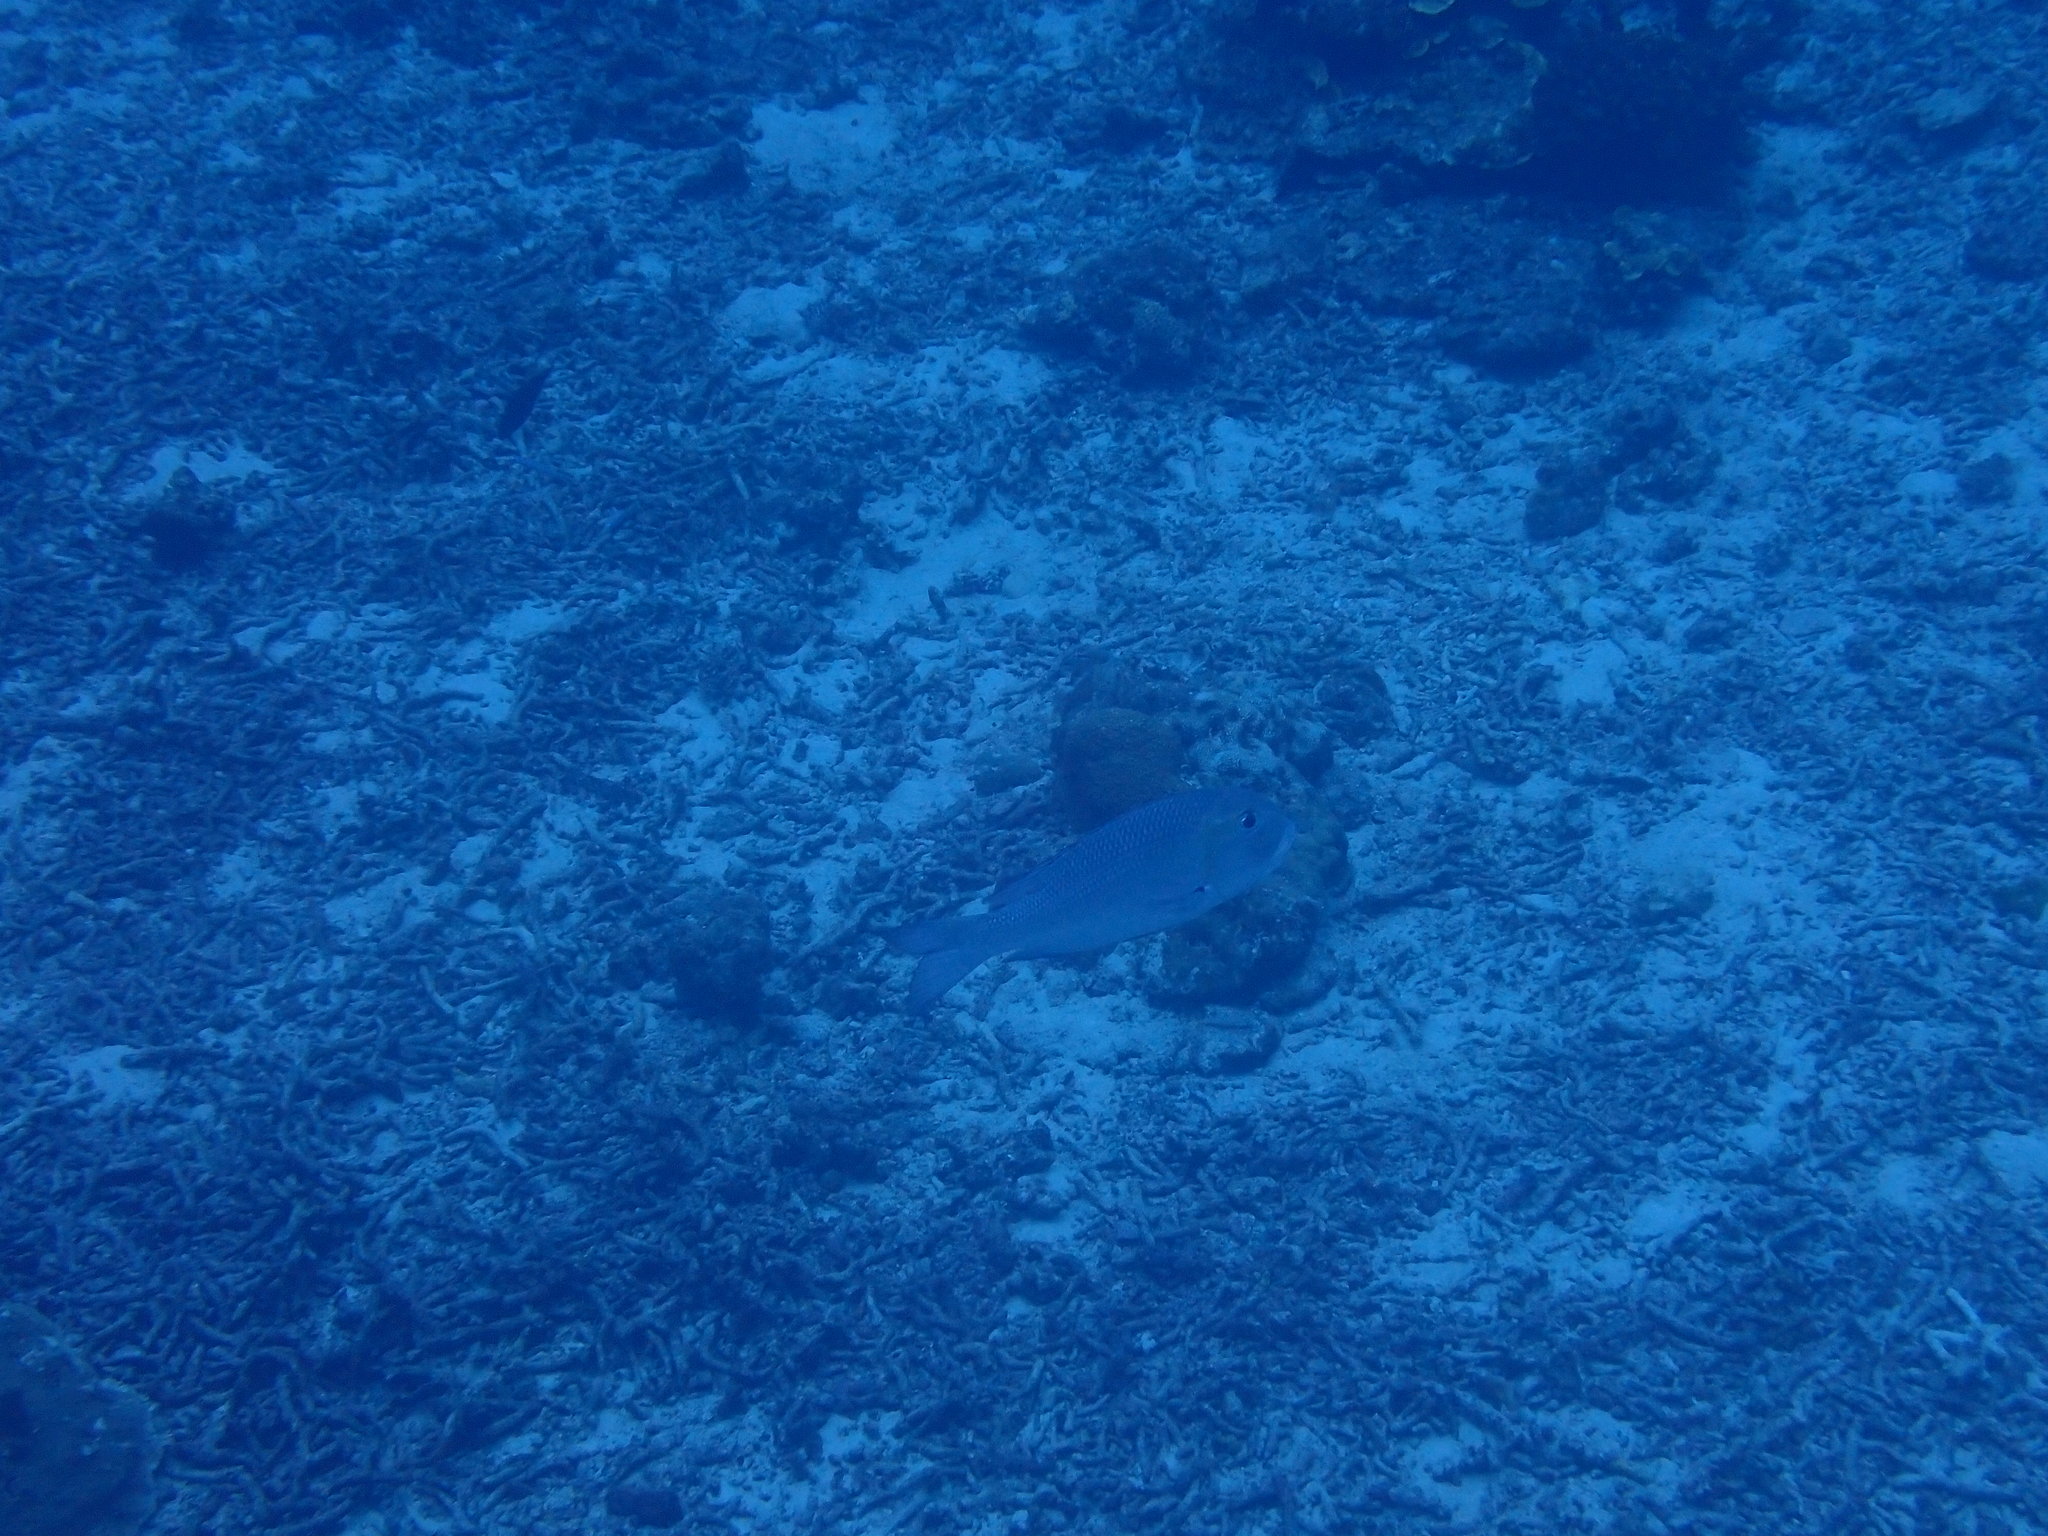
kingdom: Animalia
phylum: Chordata
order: Perciformes
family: Lethrinidae
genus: Monotaxis
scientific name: Monotaxis grandoculis
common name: Bigeye emperor
